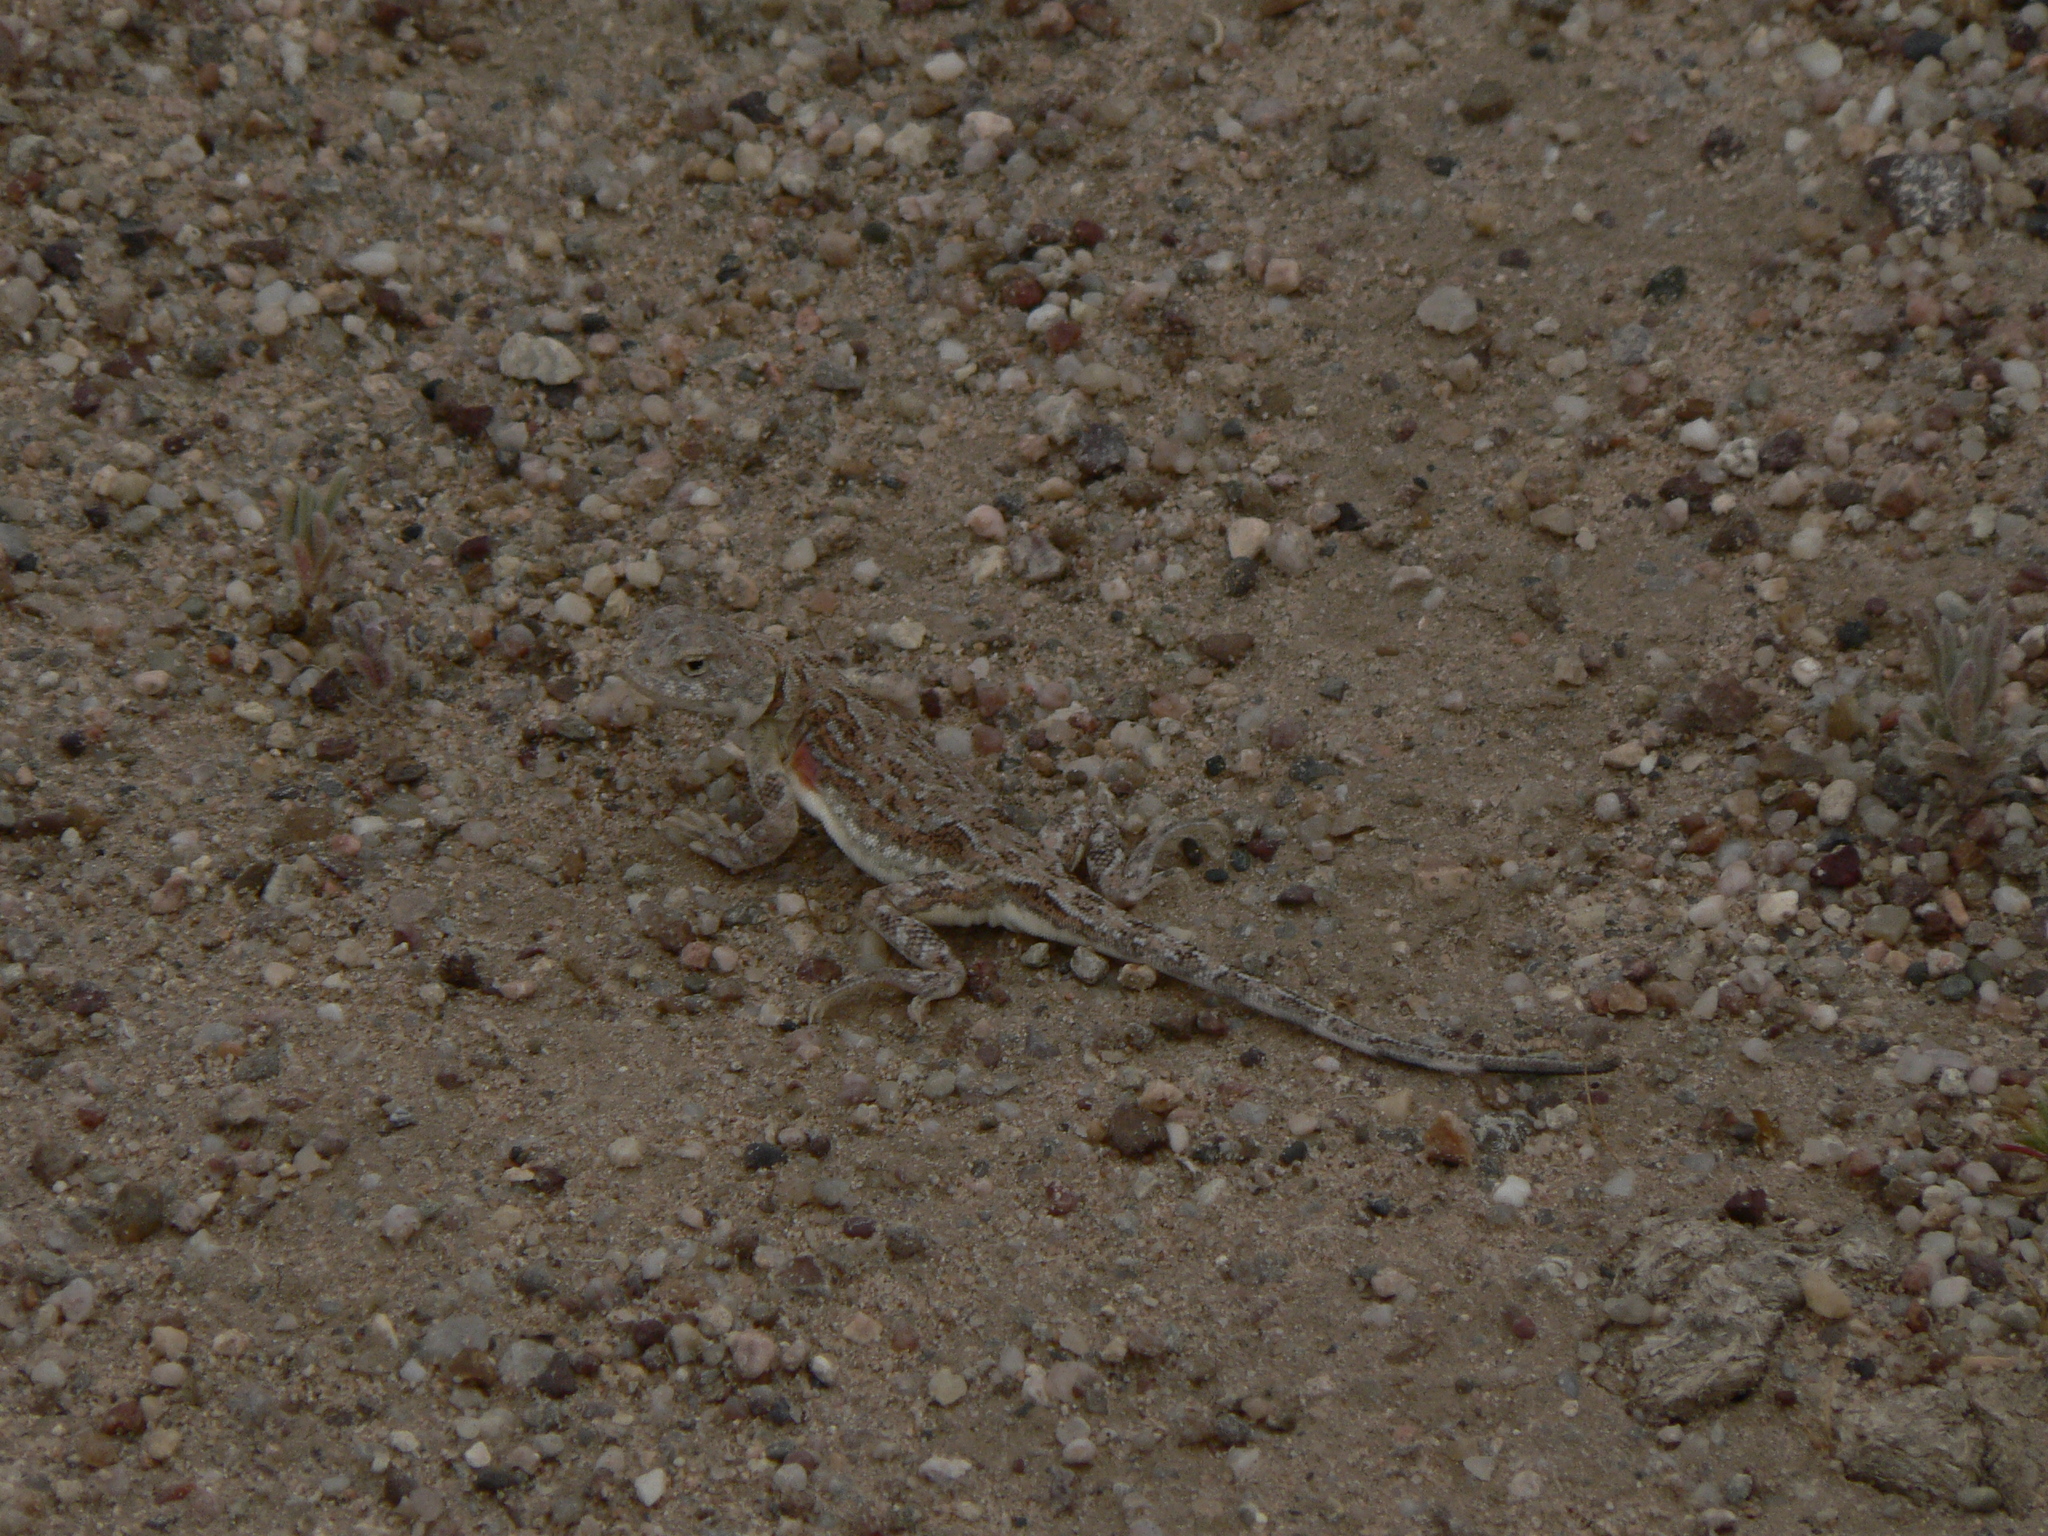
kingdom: Animalia
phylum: Chordata
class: Squamata
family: Agamidae
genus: Phrynocephalus
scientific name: Phrynocephalus versicolor
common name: Tuvan toad-headed agama
